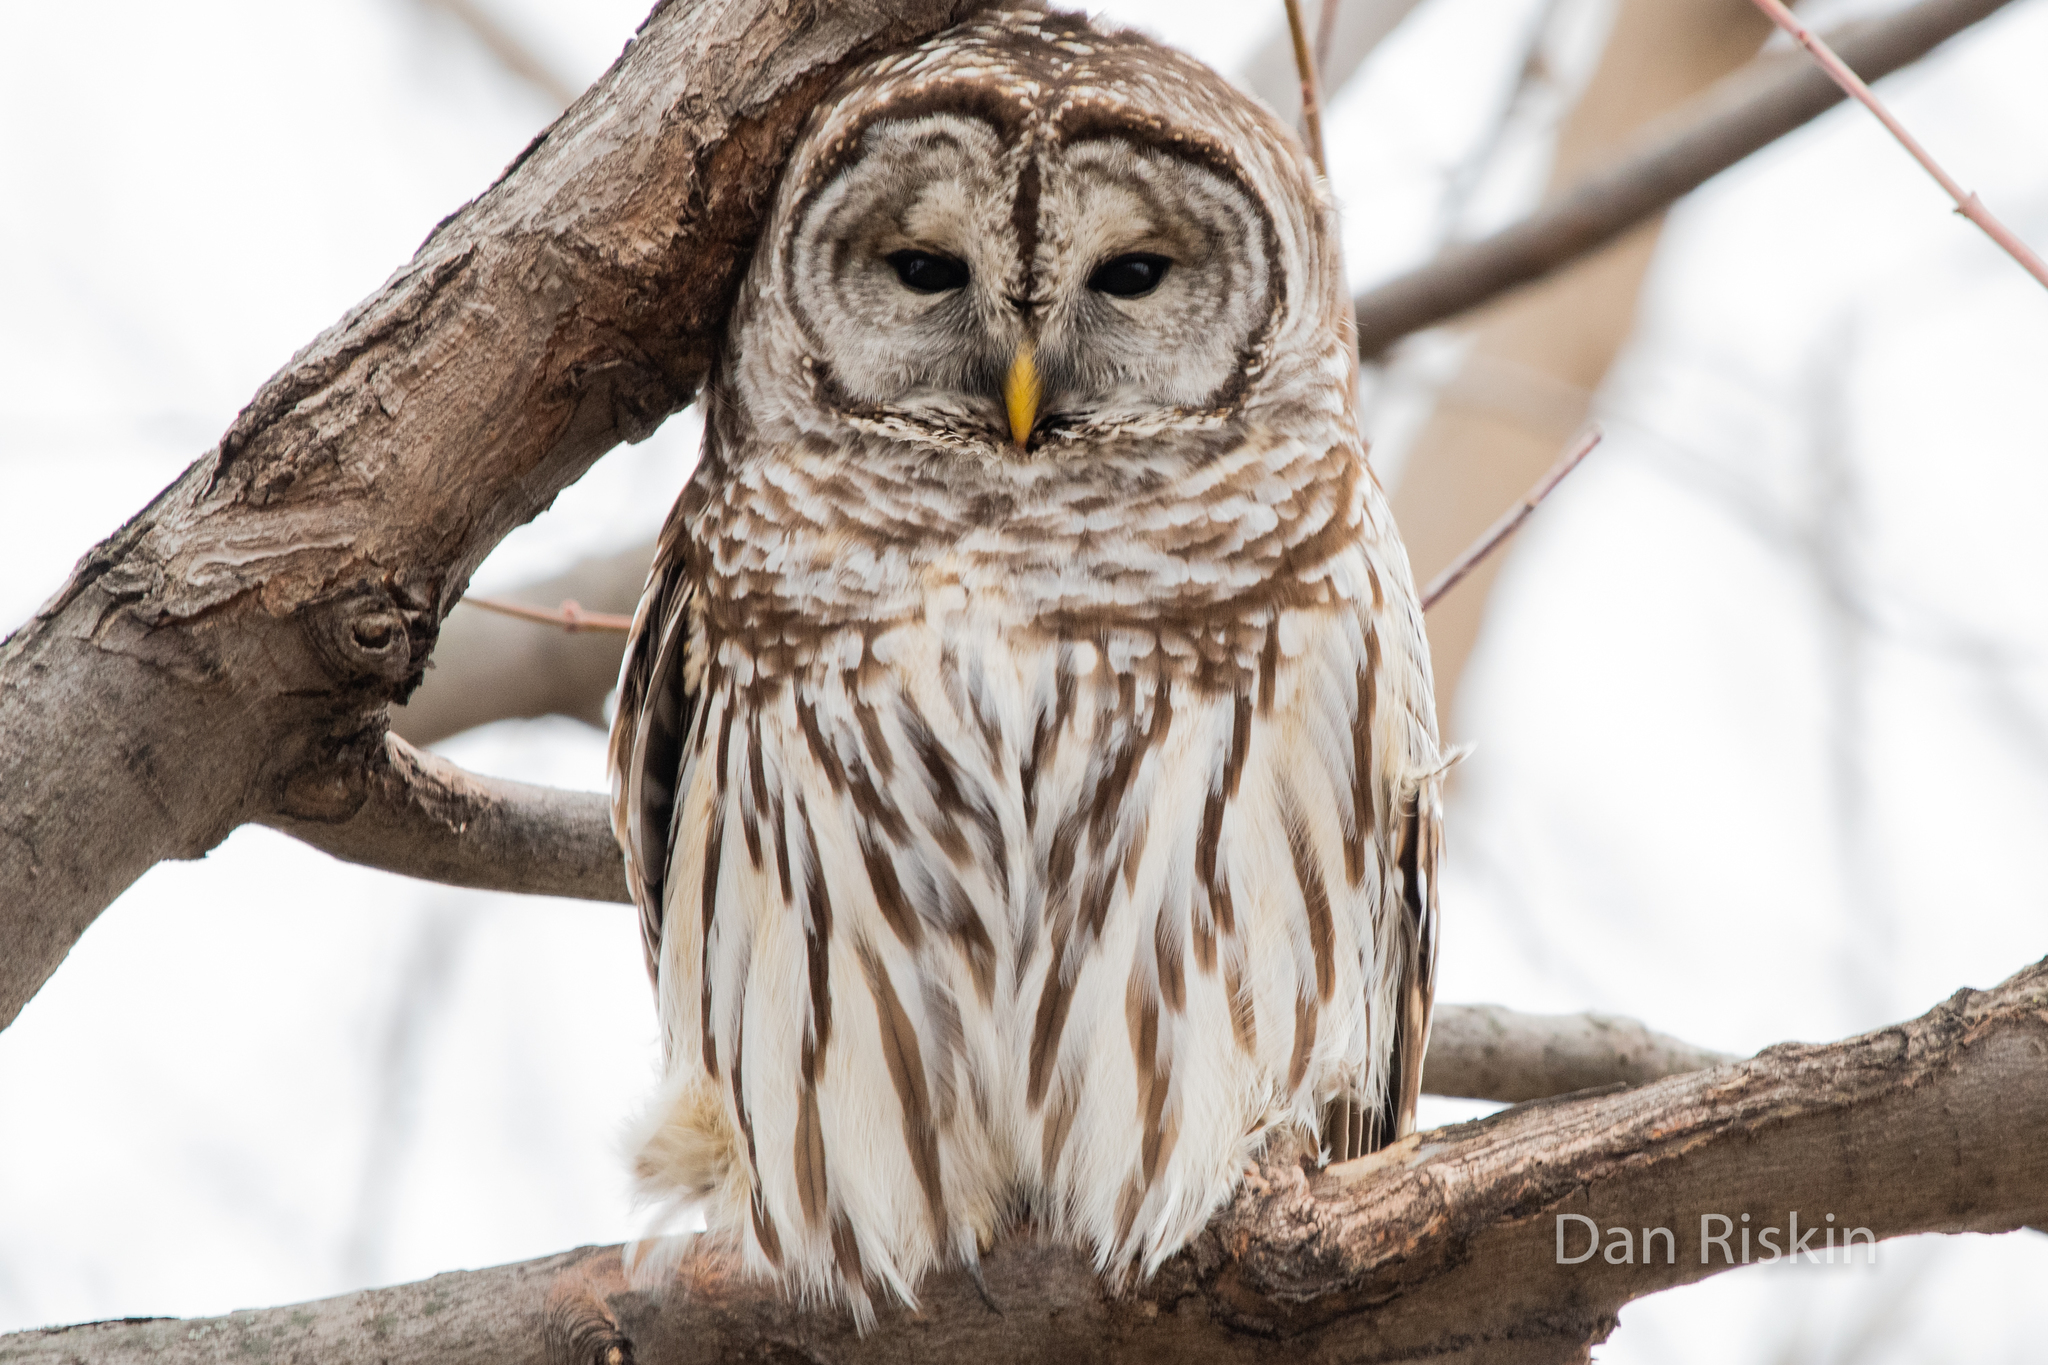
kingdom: Animalia
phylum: Chordata
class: Aves
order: Strigiformes
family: Strigidae
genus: Strix
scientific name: Strix varia
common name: Barred owl
